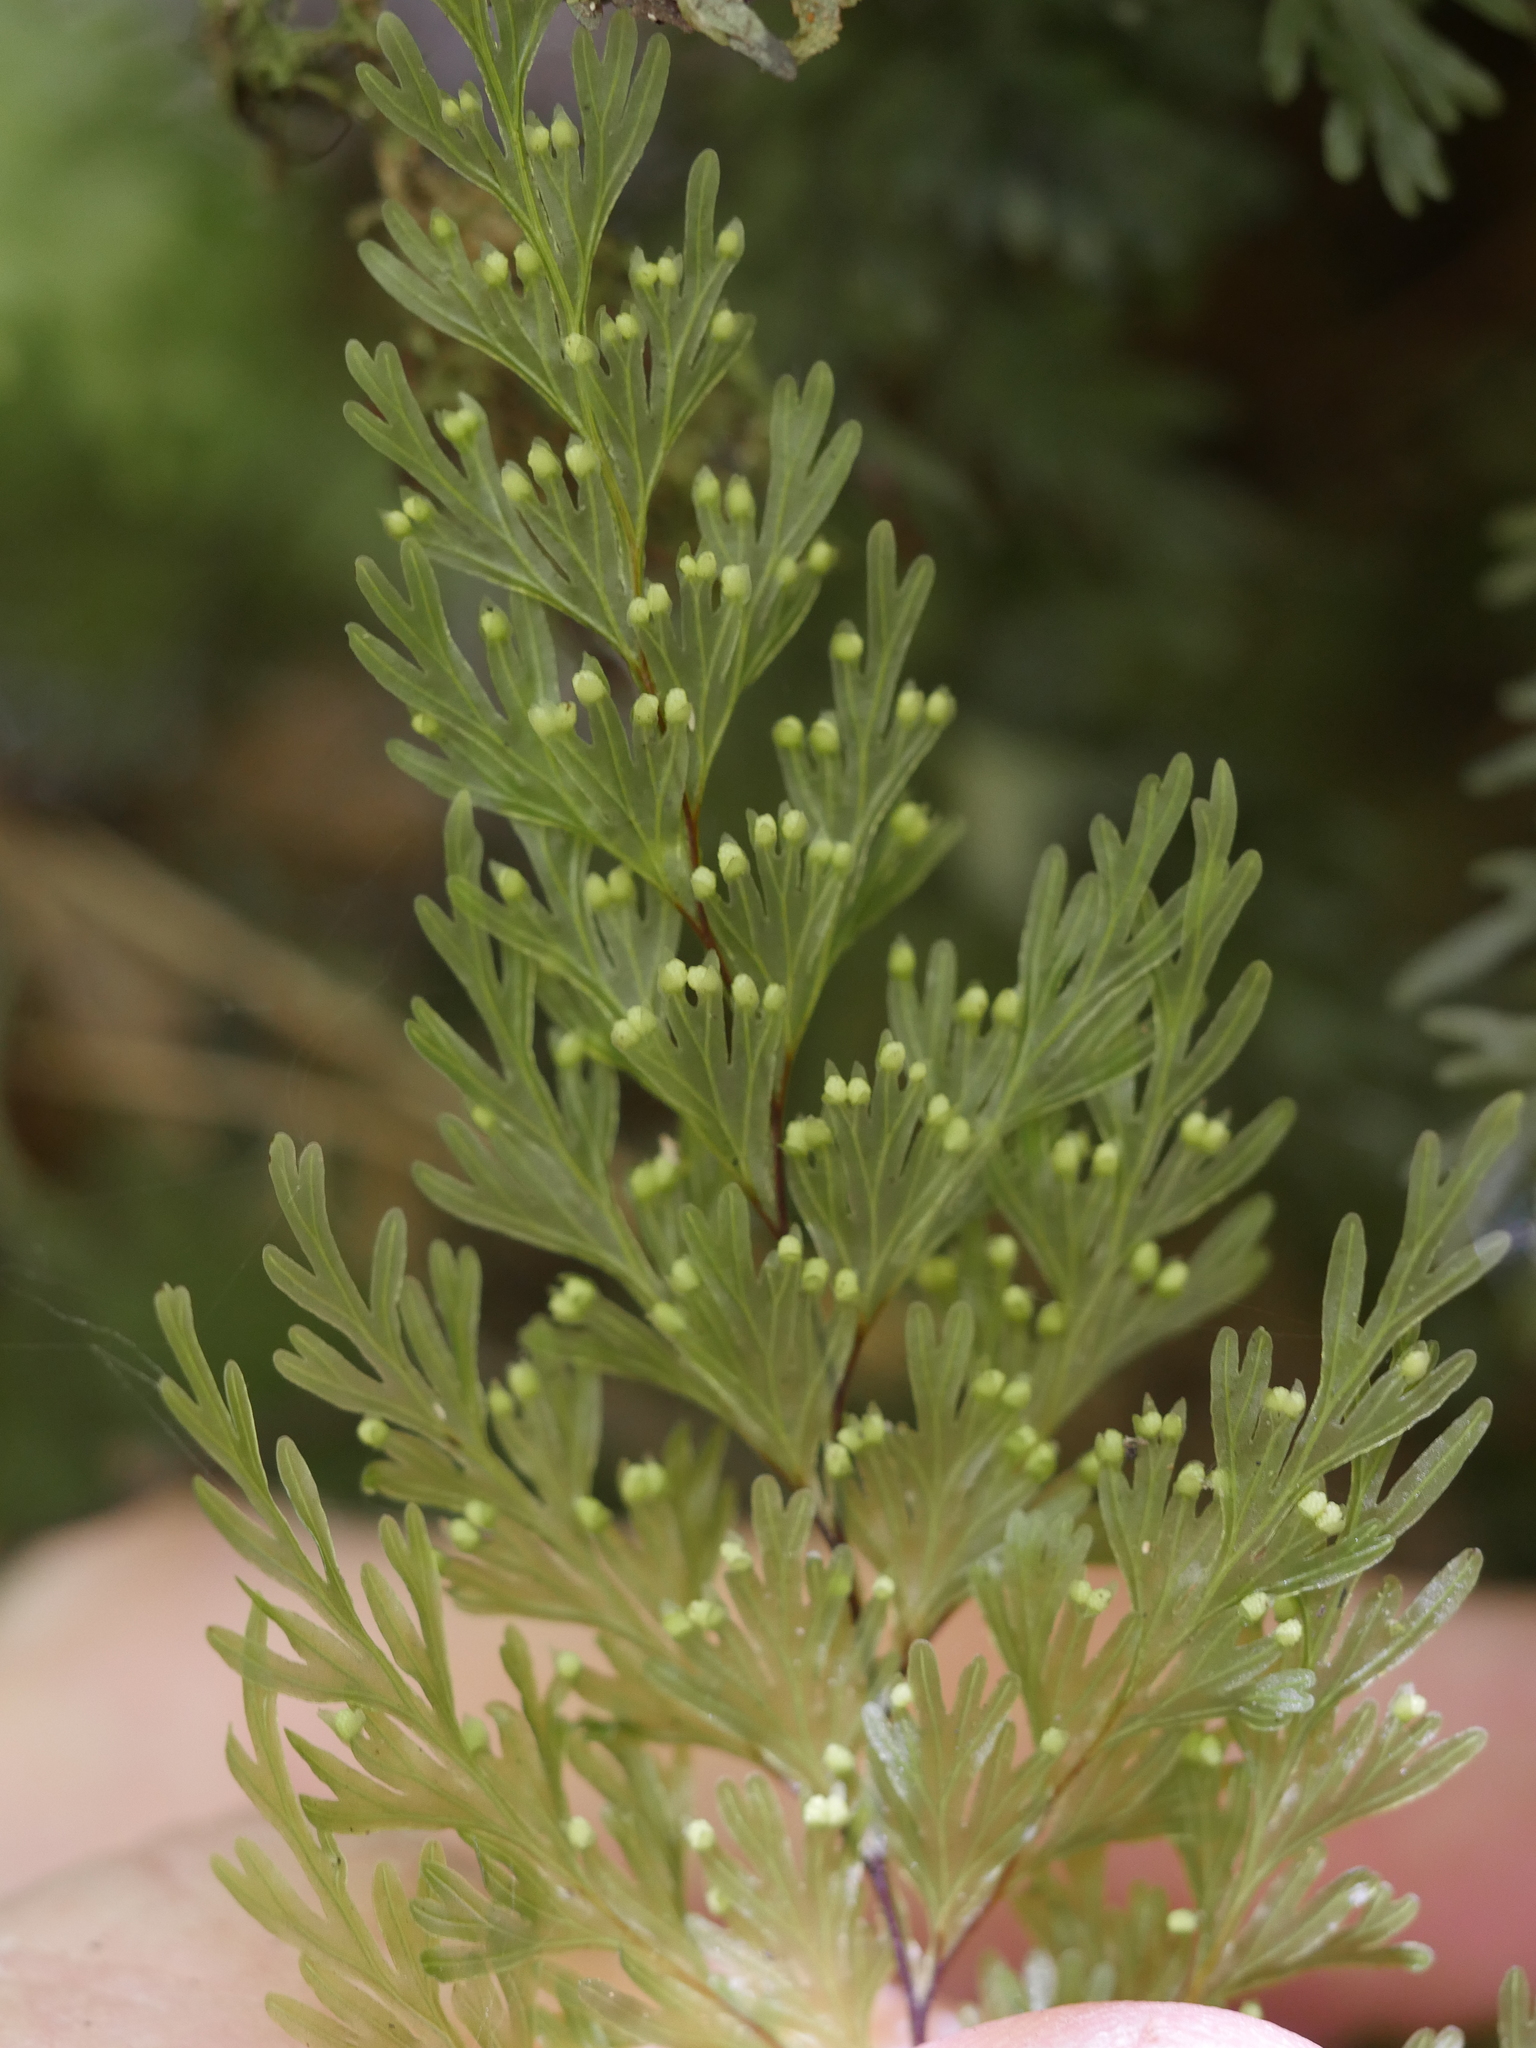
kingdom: Plantae
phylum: Tracheophyta
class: Polypodiopsida
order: Hymenophyllales
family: Hymenophyllaceae
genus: Hymenophyllum
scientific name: Hymenophyllum demissum
